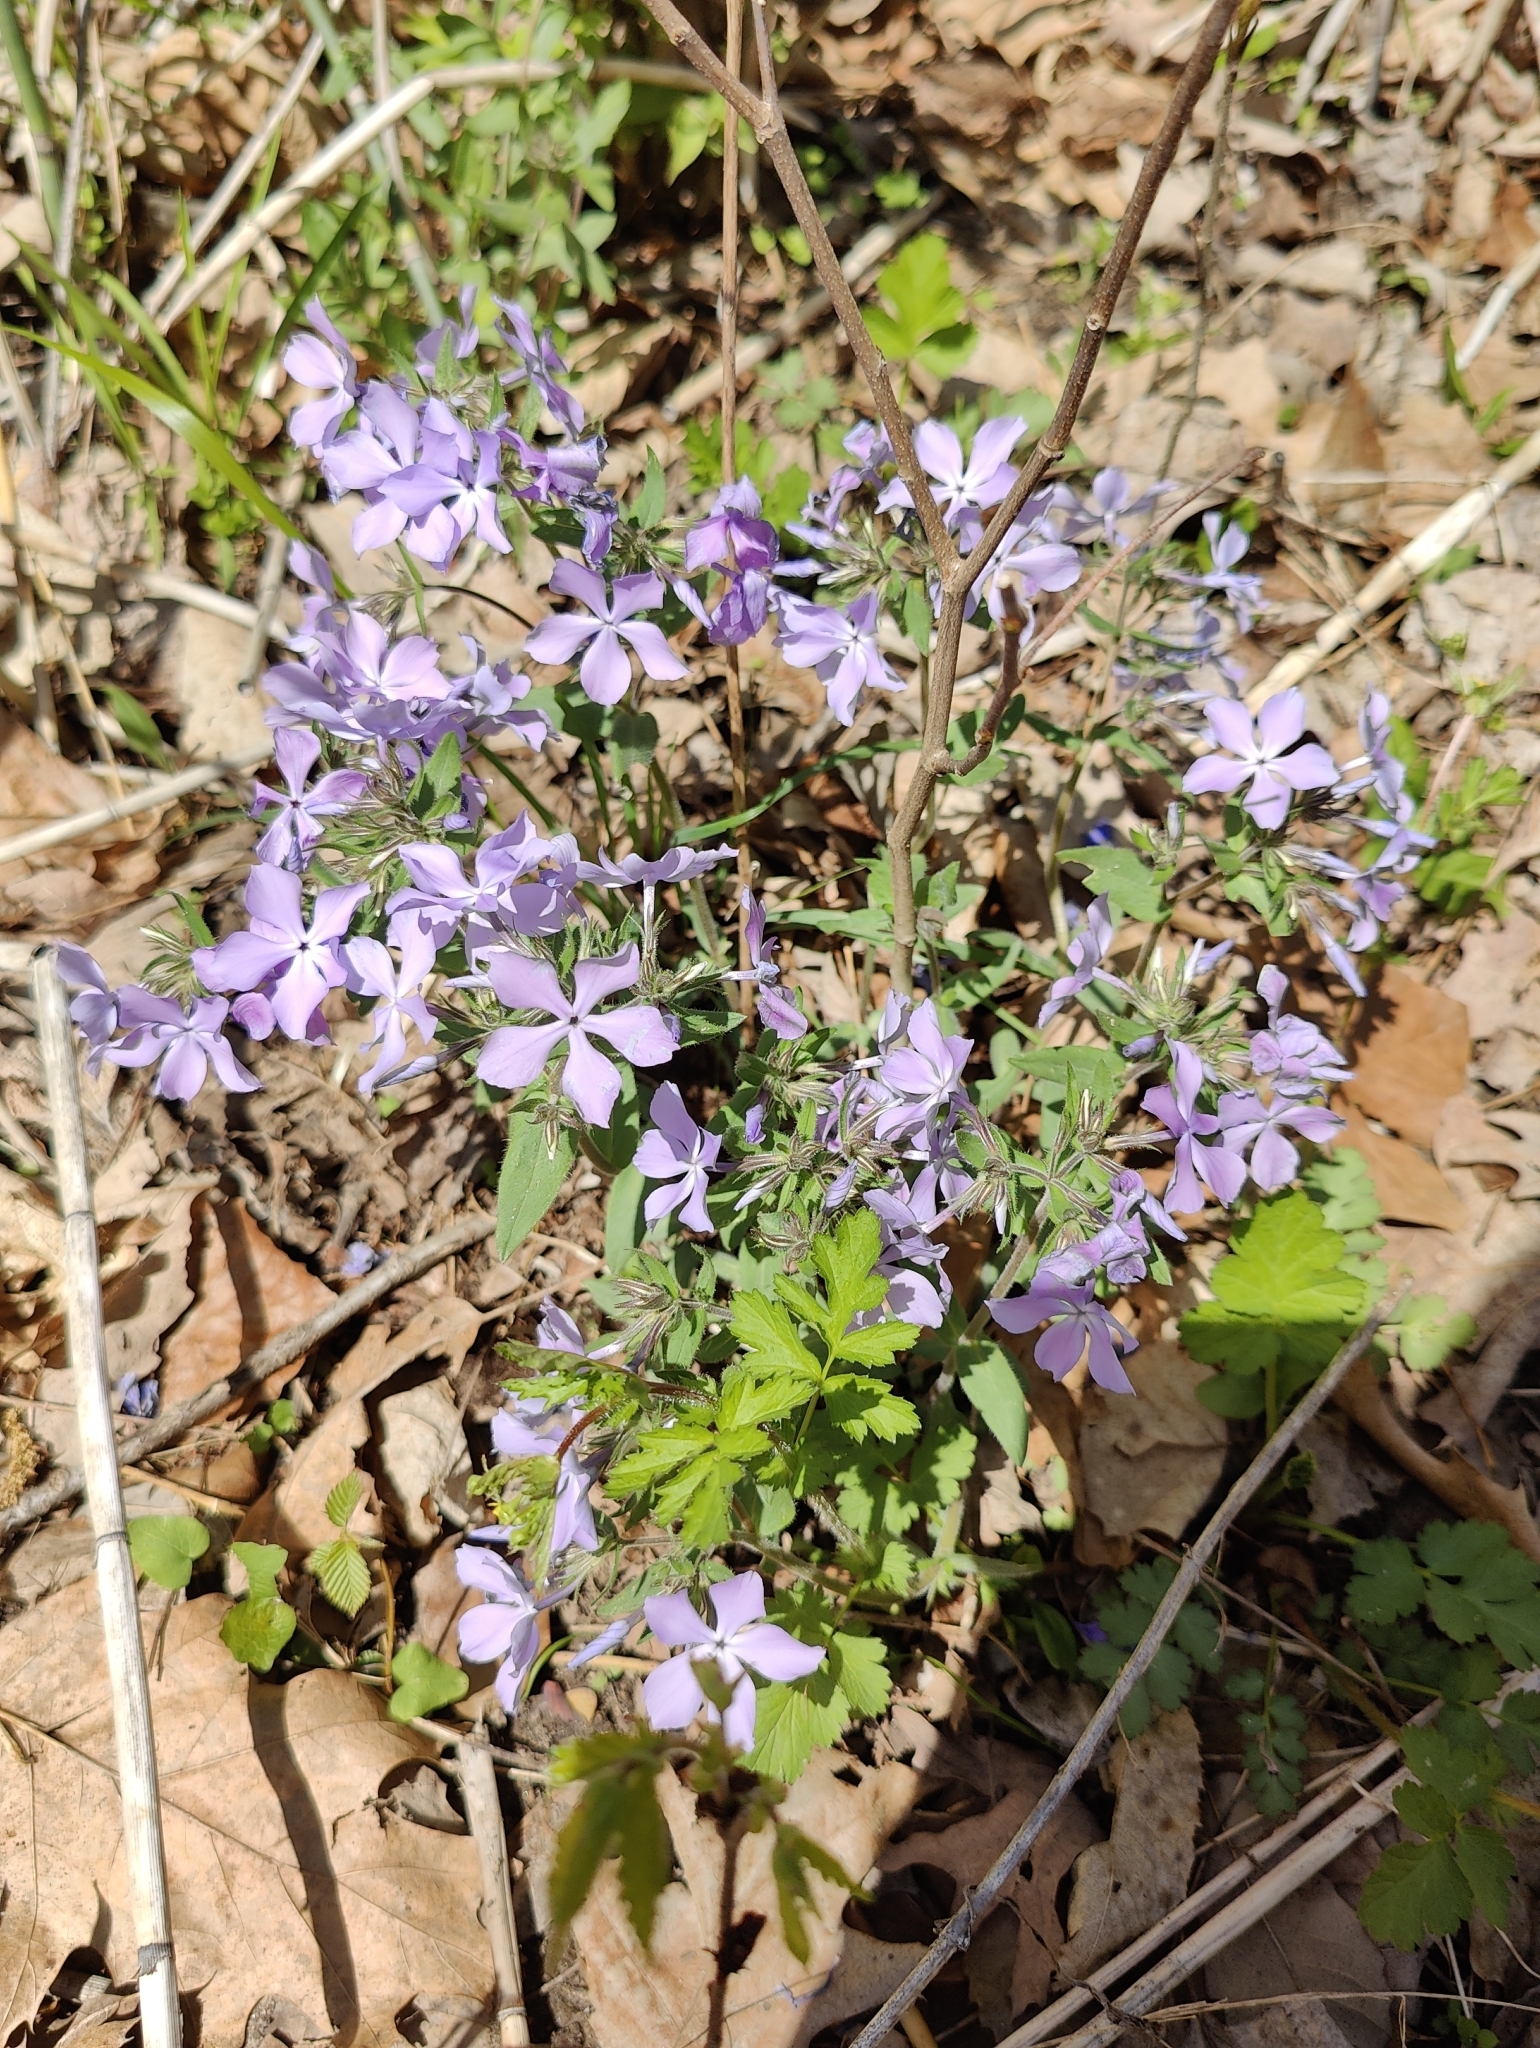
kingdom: Plantae
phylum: Tracheophyta
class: Magnoliopsida
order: Ericales
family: Polemoniaceae
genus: Phlox
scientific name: Phlox divaricata
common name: Blue phlox
